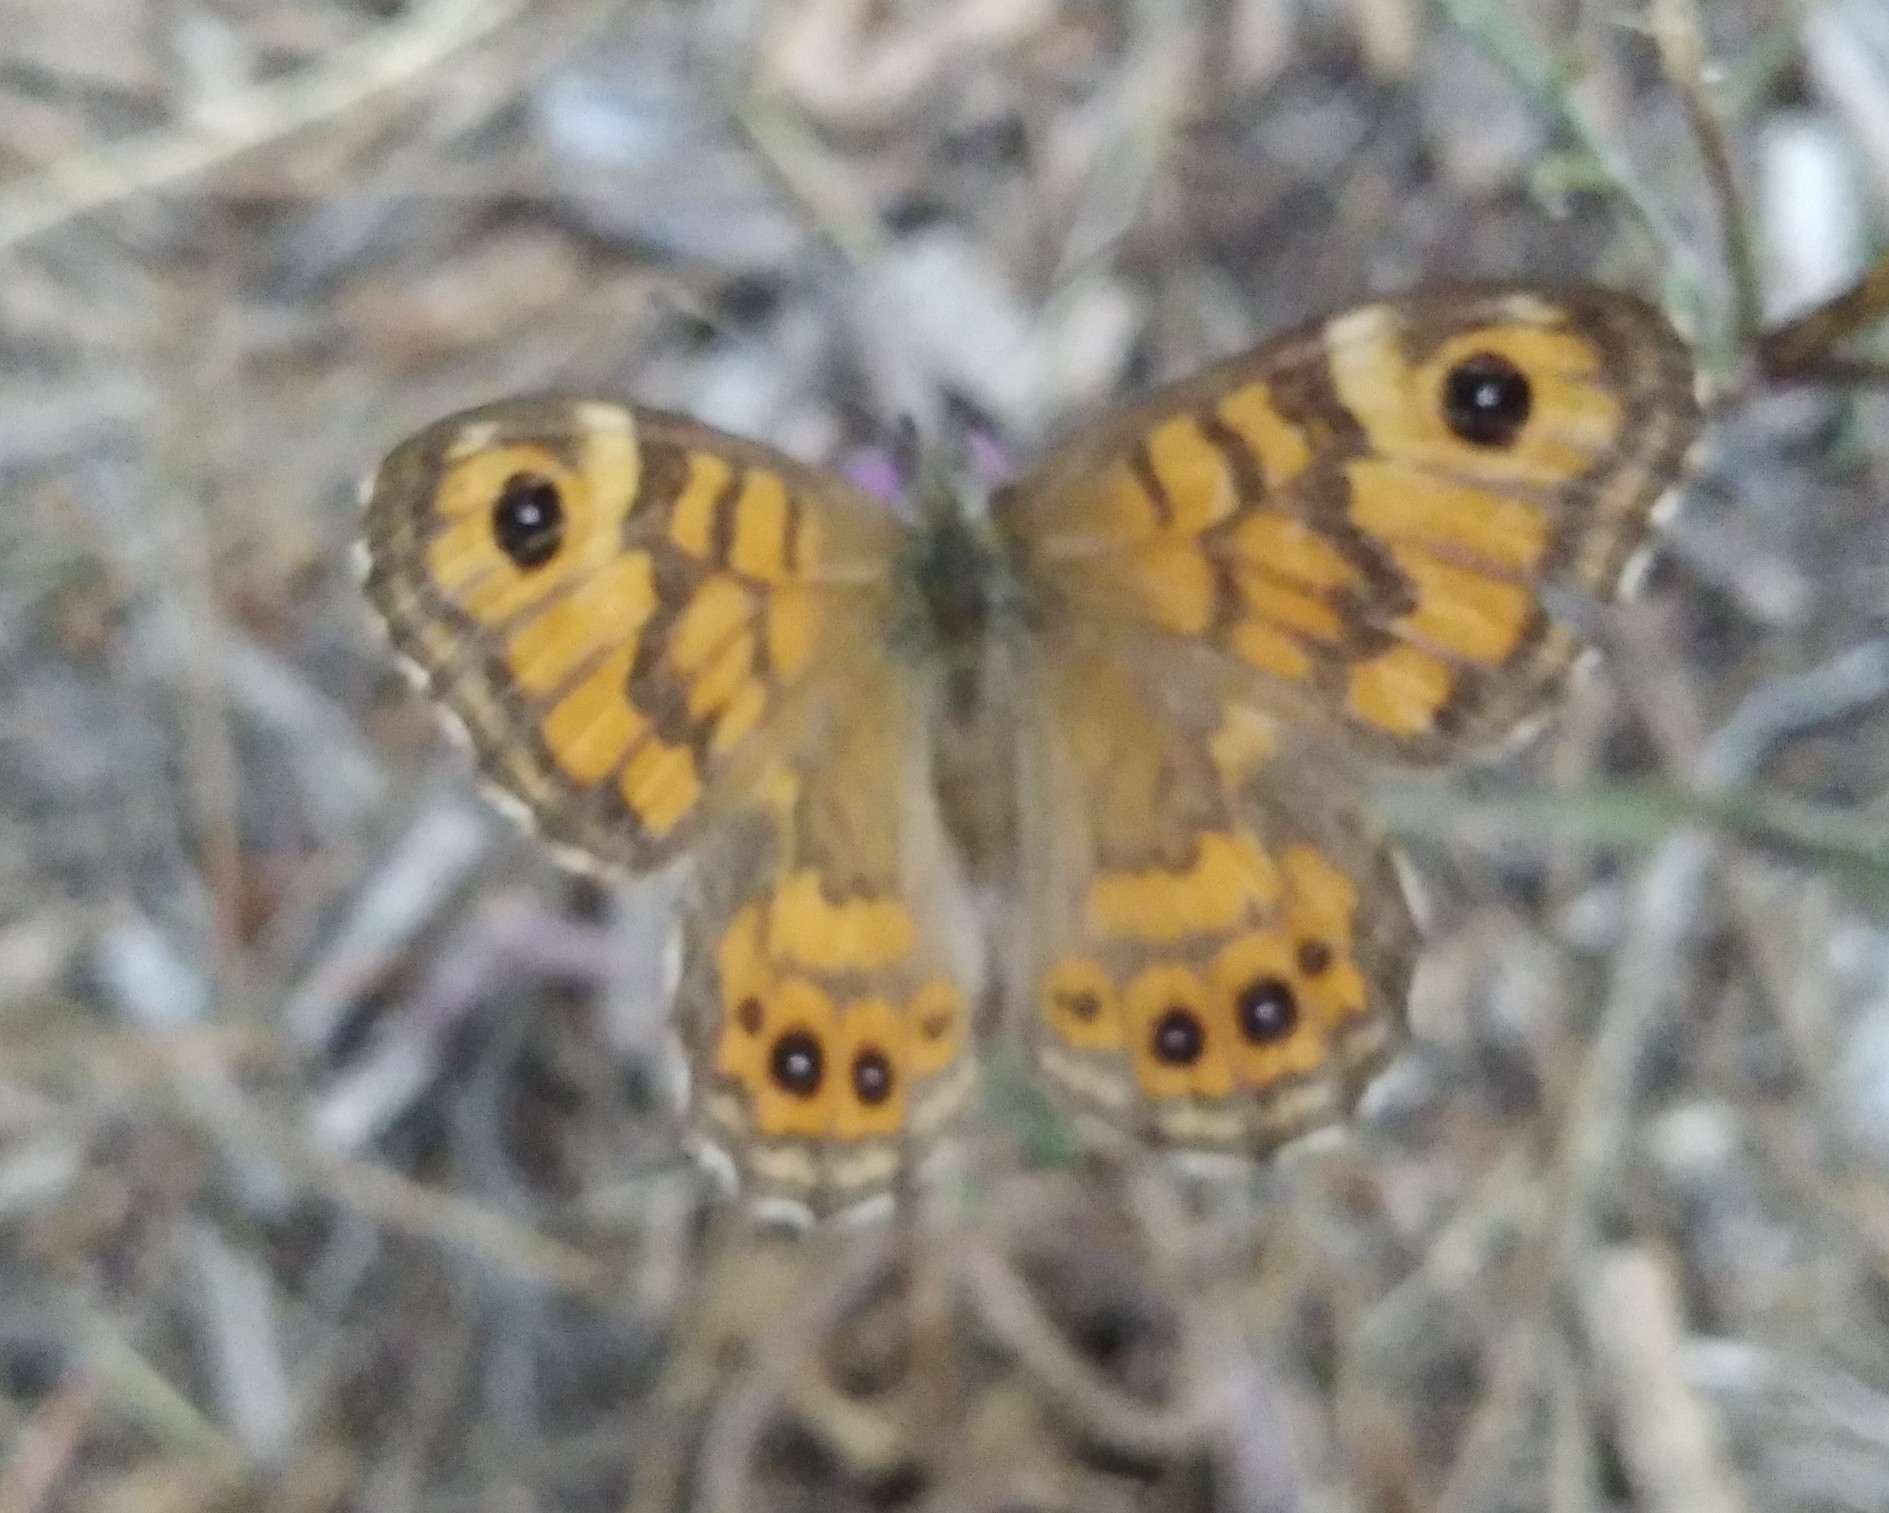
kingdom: Animalia
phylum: Arthropoda
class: Insecta
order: Lepidoptera
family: Nymphalidae
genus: Pararge
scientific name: Pararge Lasiommata megera
